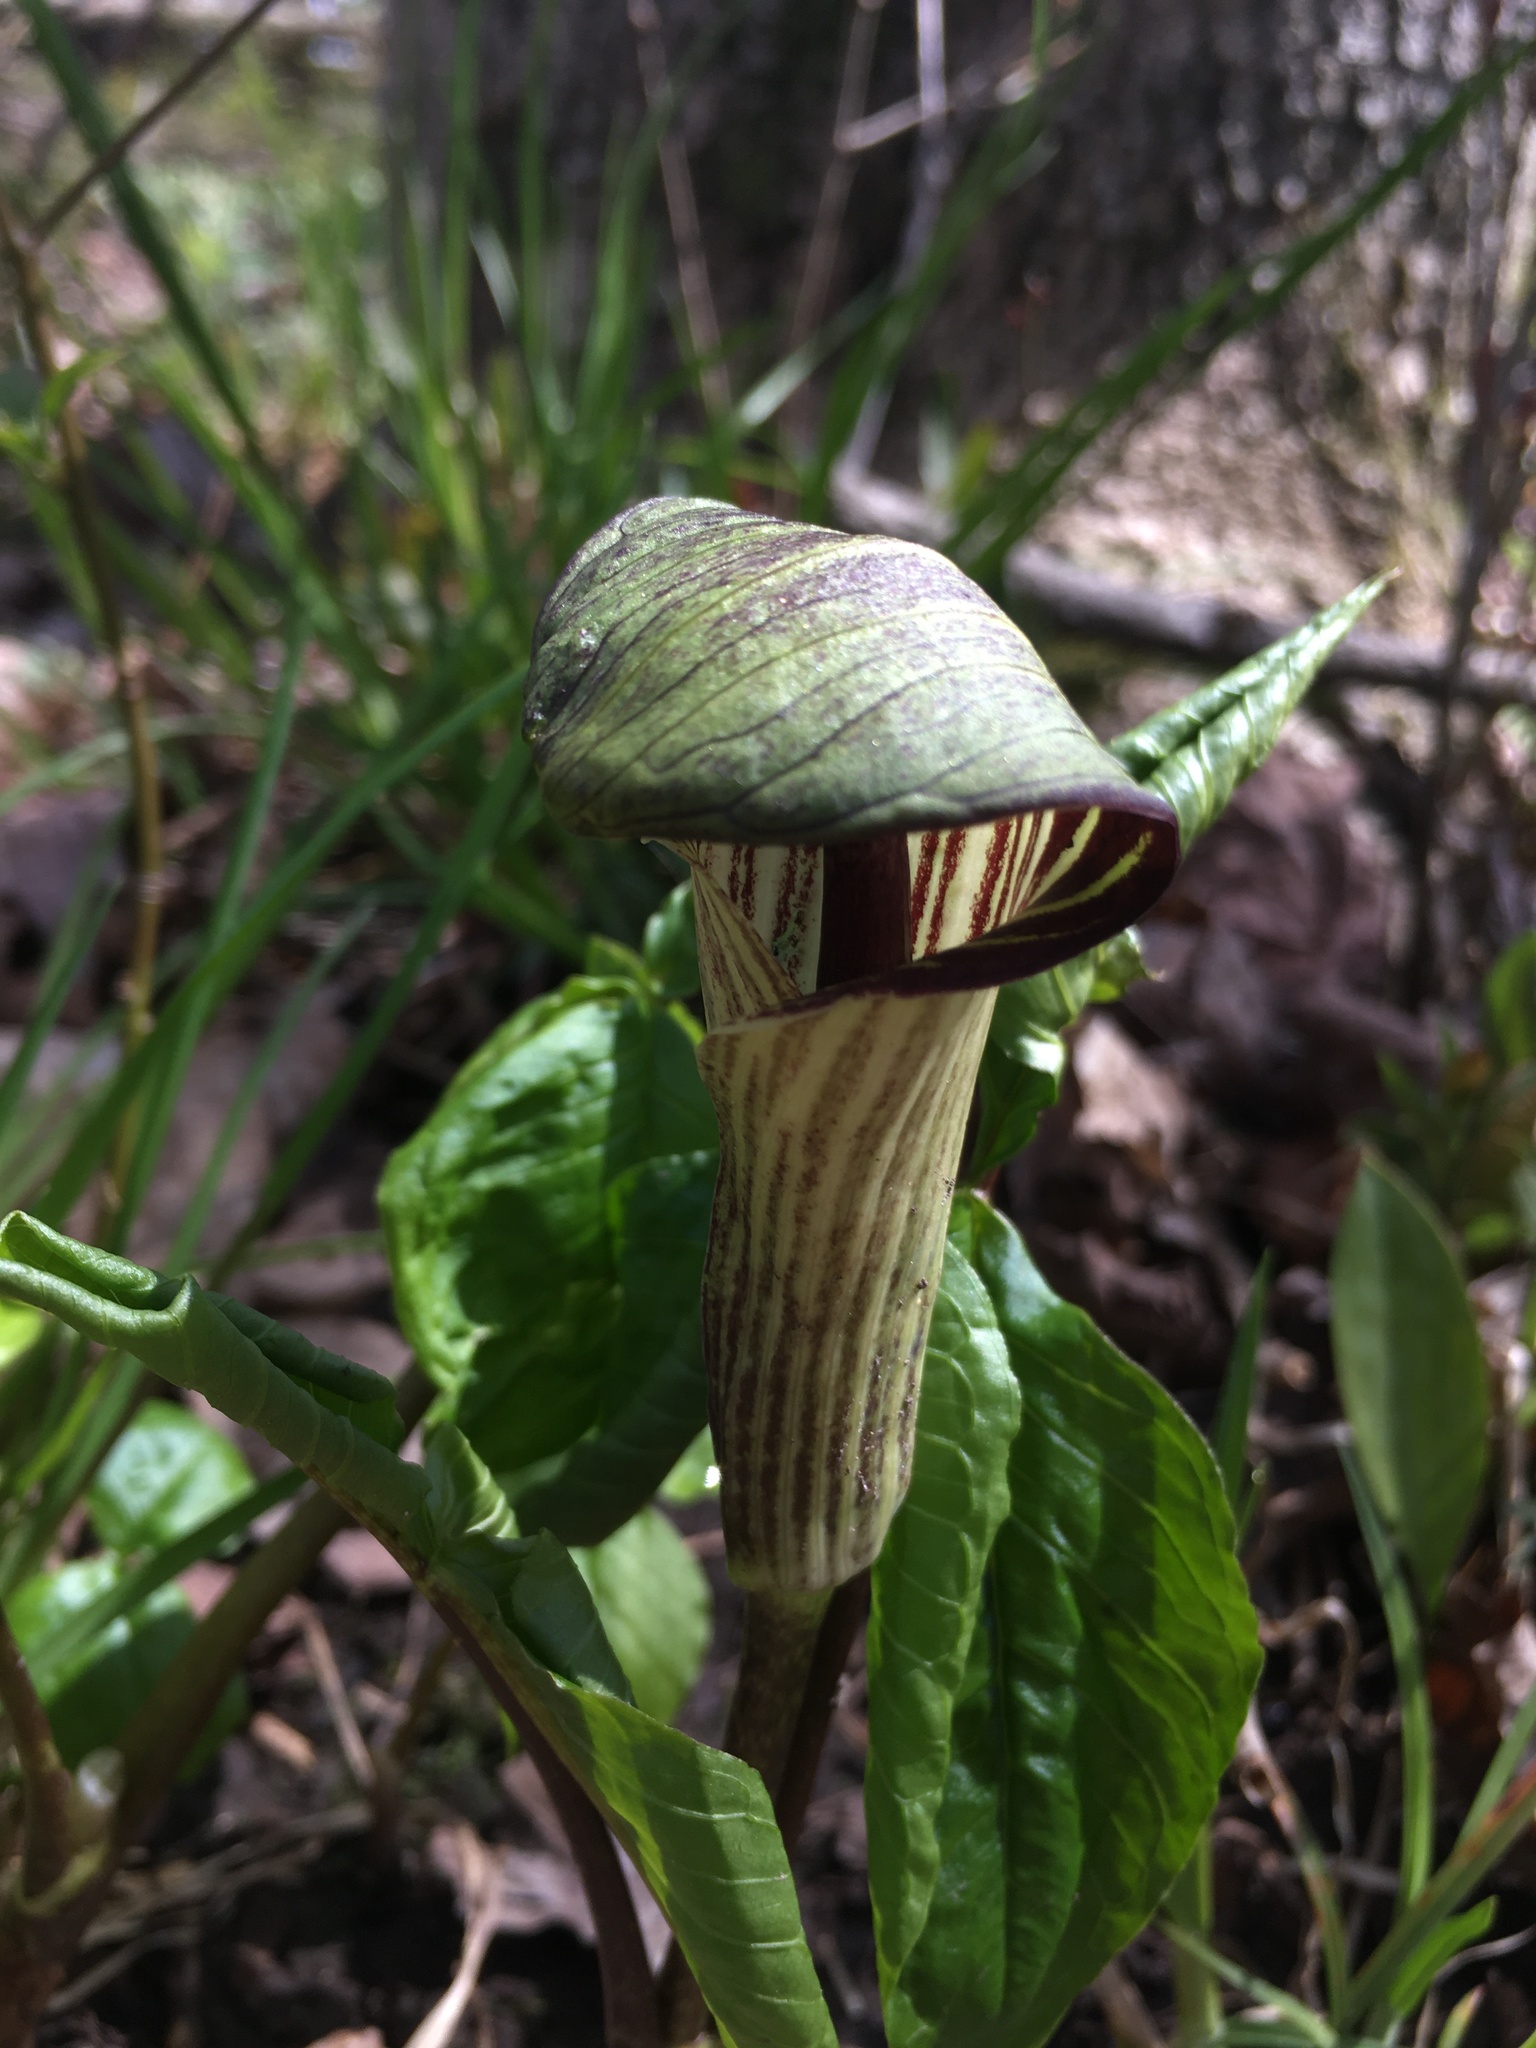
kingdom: Plantae
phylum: Tracheophyta
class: Liliopsida
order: Alismatales
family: Araceae
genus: Arisaema
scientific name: Arisaema triphyllum
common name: Jack-in-the-pulpit
